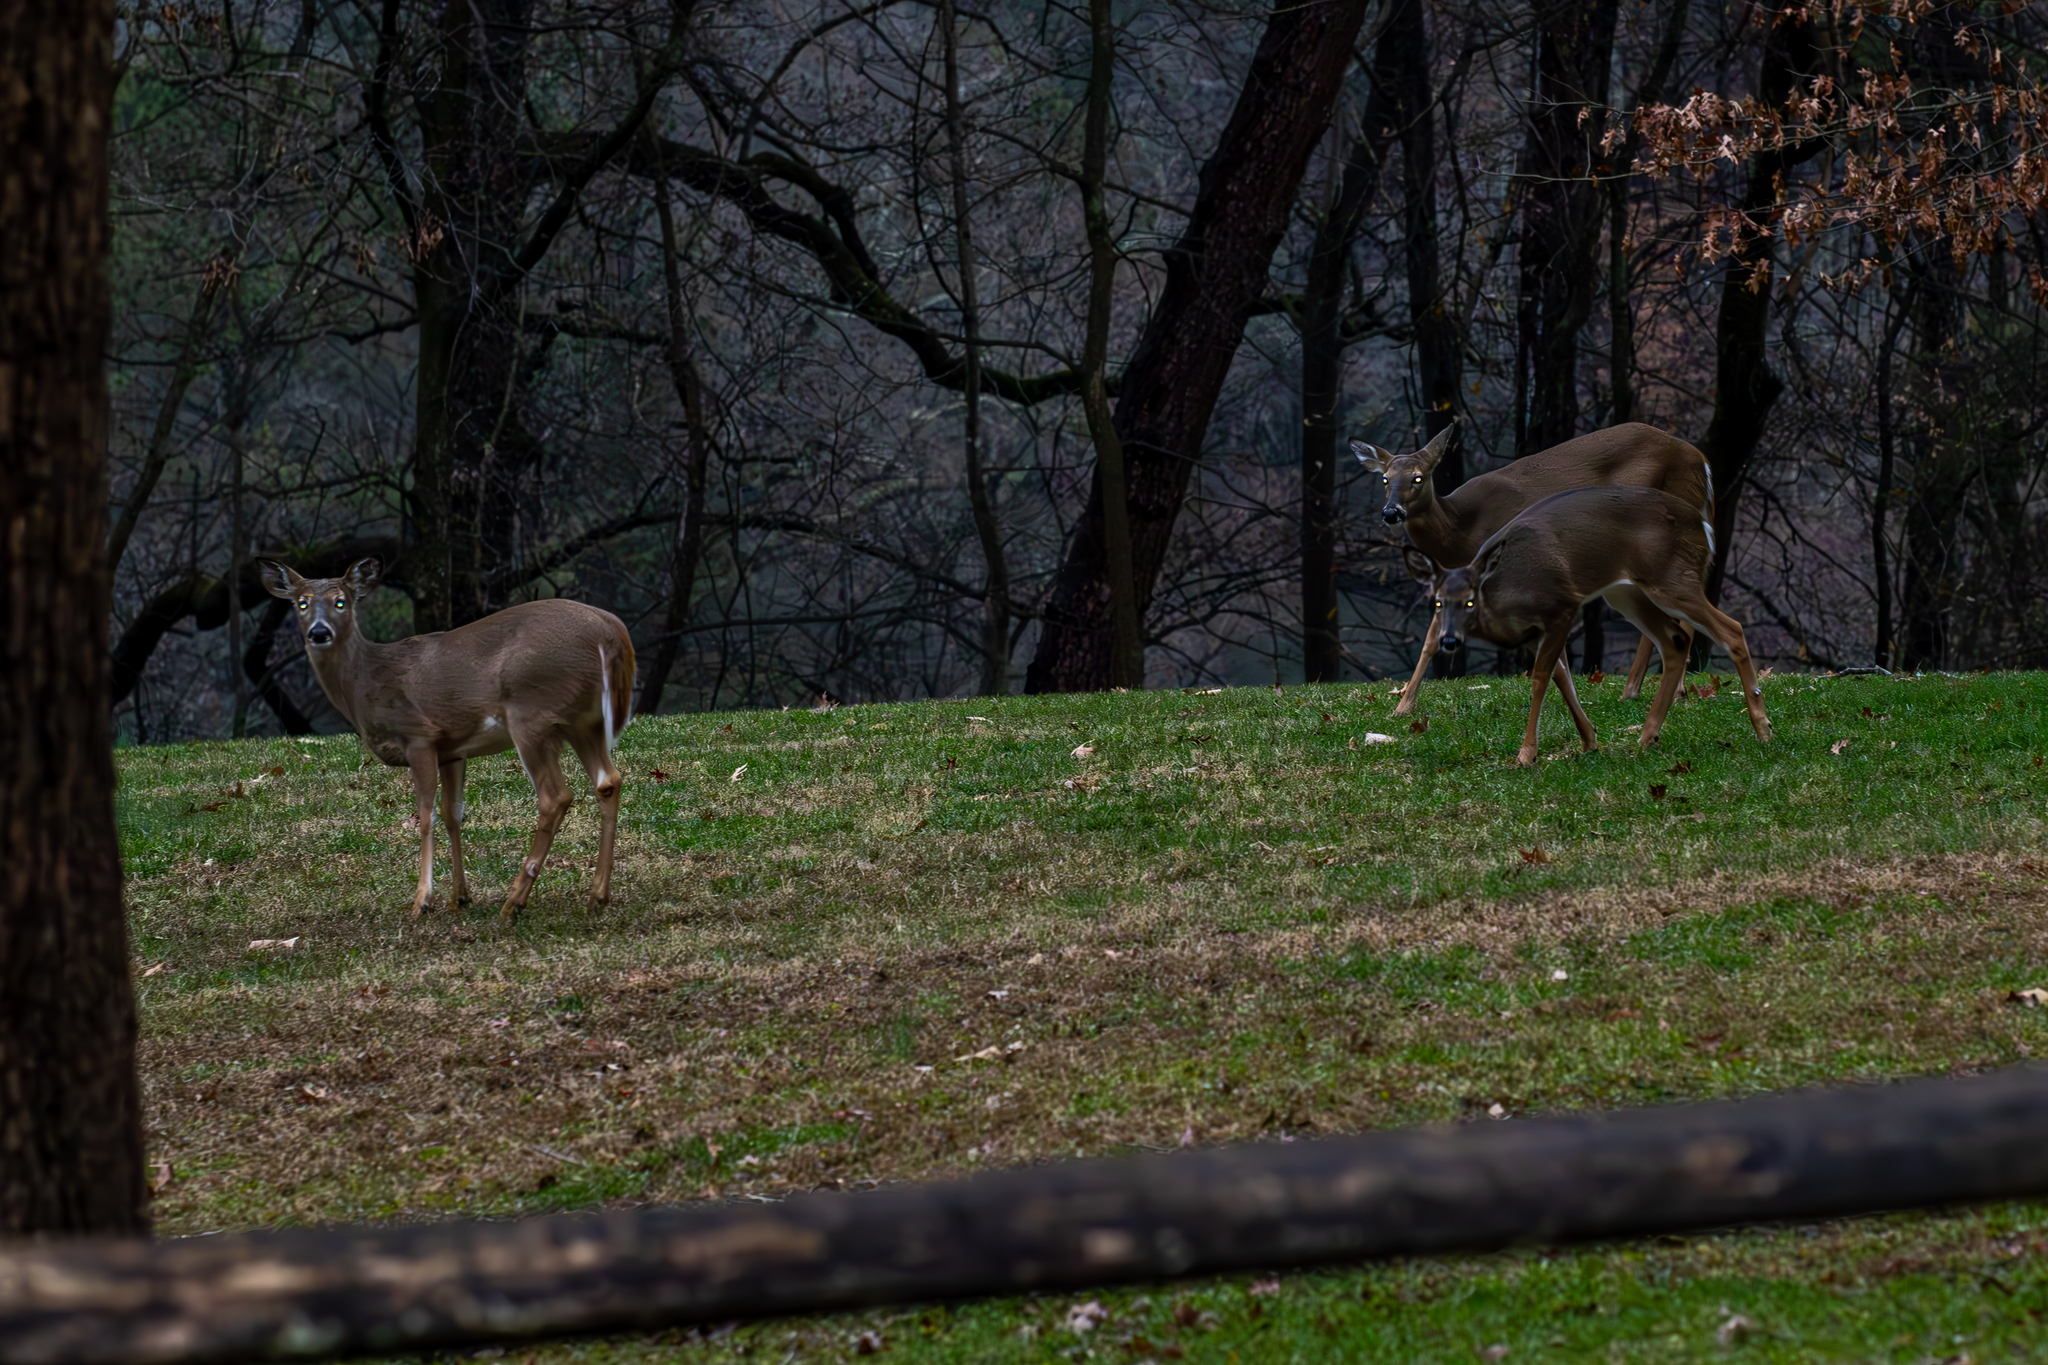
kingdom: Animalia
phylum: Chordata
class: Mammalia
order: Artiodactyla
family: Cervidae
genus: Odocoileus
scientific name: Odocoileus virginianus
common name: White-tailed deer
